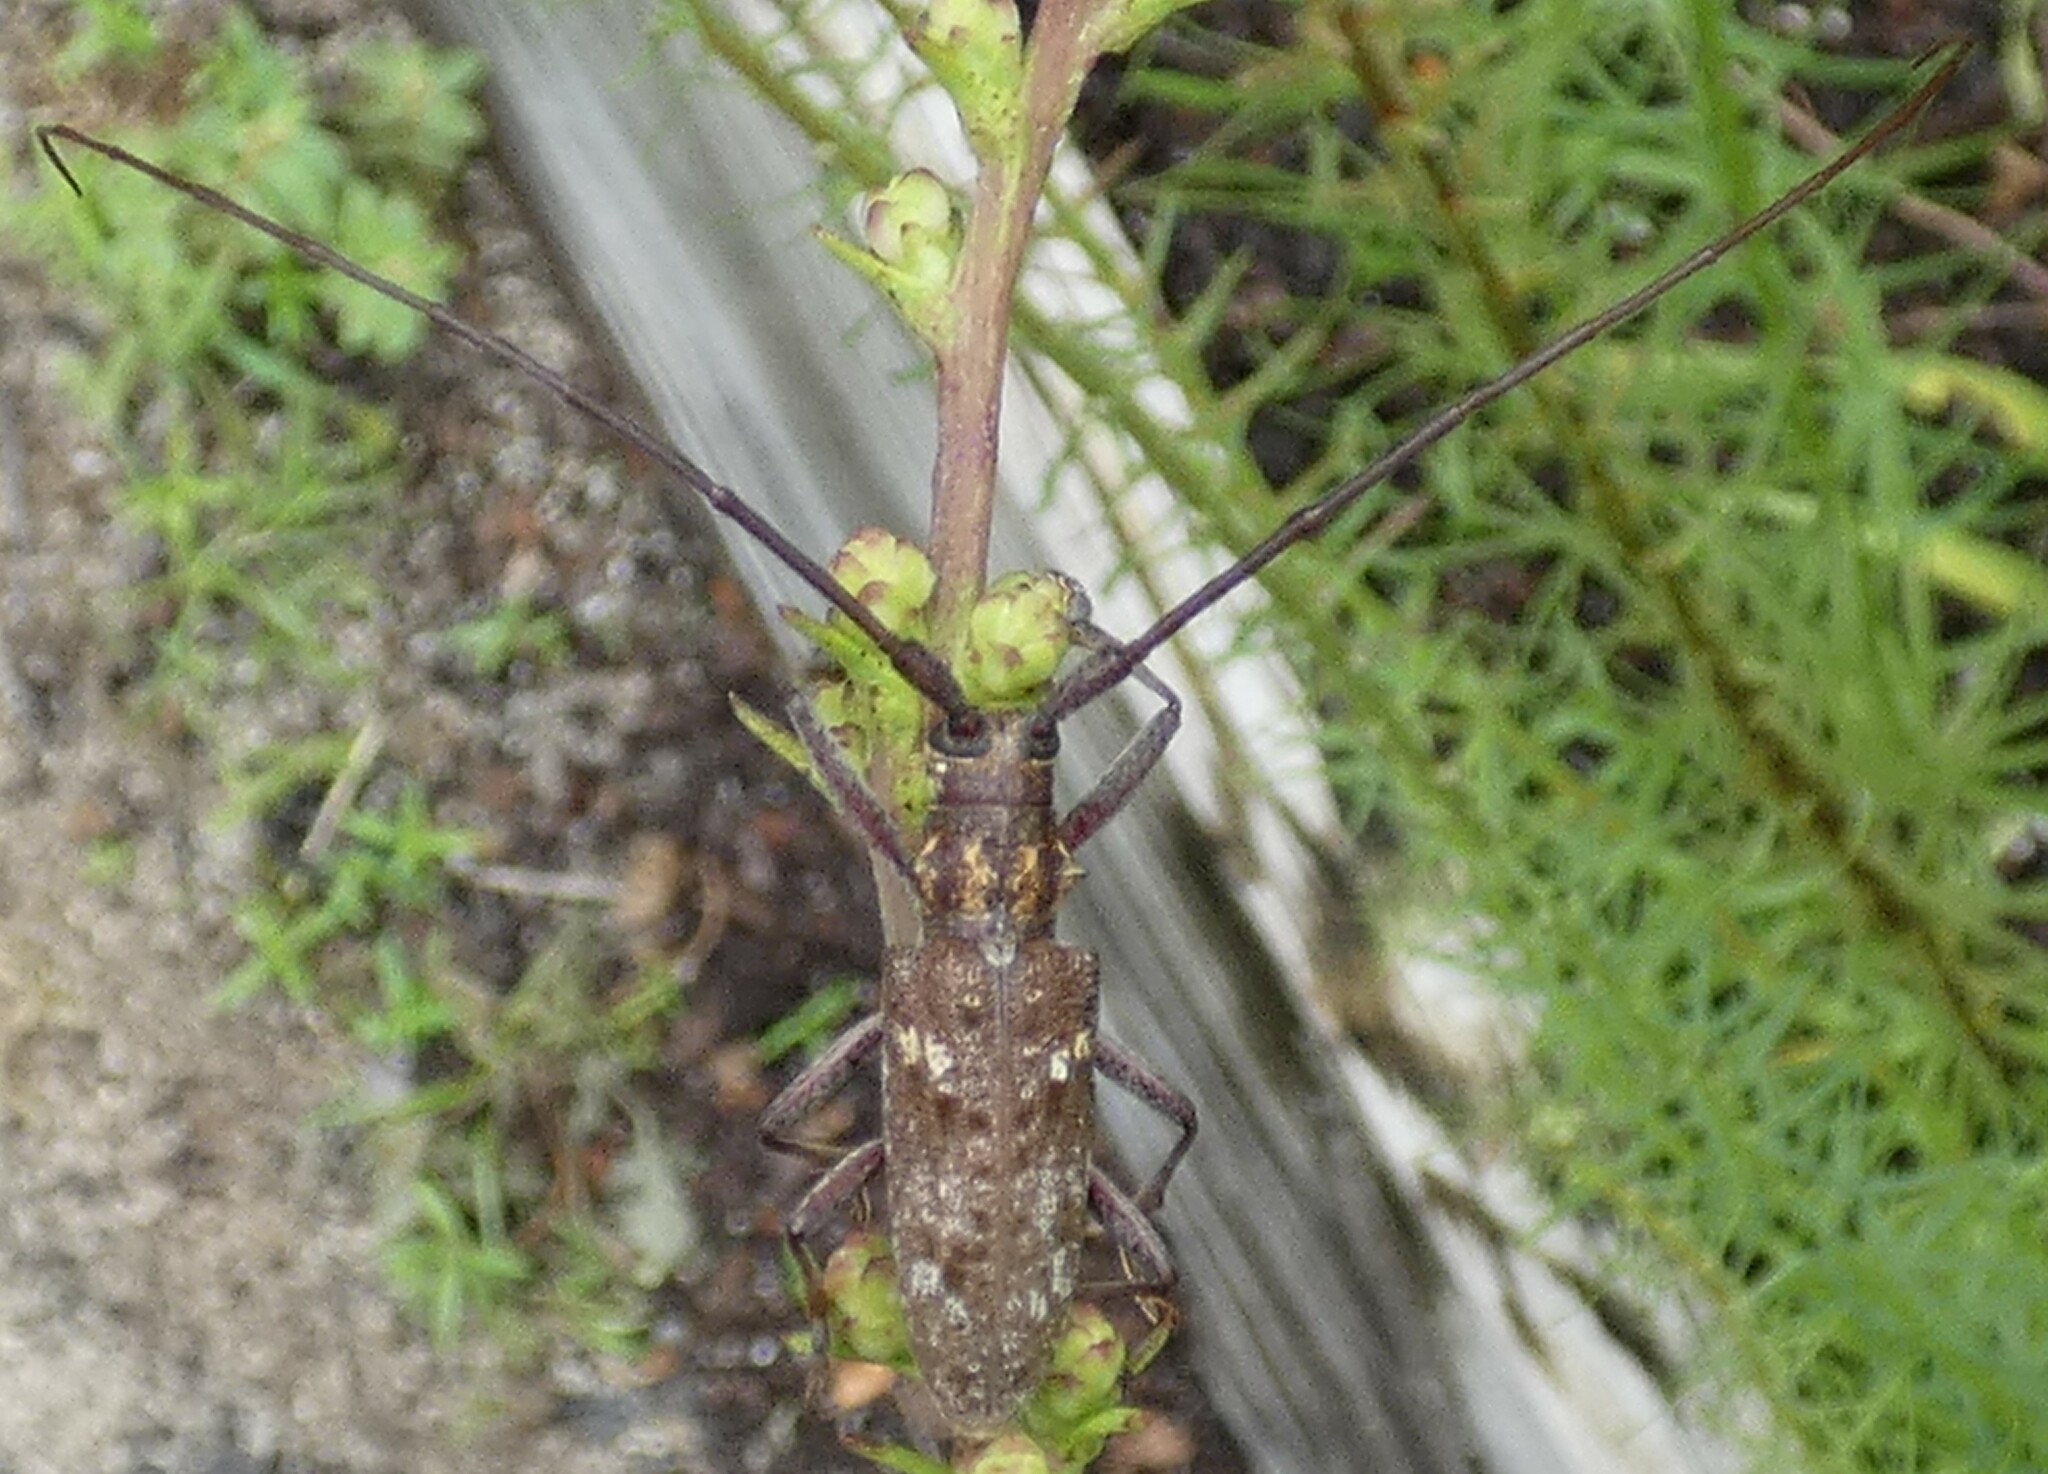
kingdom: Animalia
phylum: Arthropoda
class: Insecta
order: Coleoptera
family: Cerambycidae
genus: Monochamus
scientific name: Monochamus carolinensis
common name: Carolina pine sawyer
